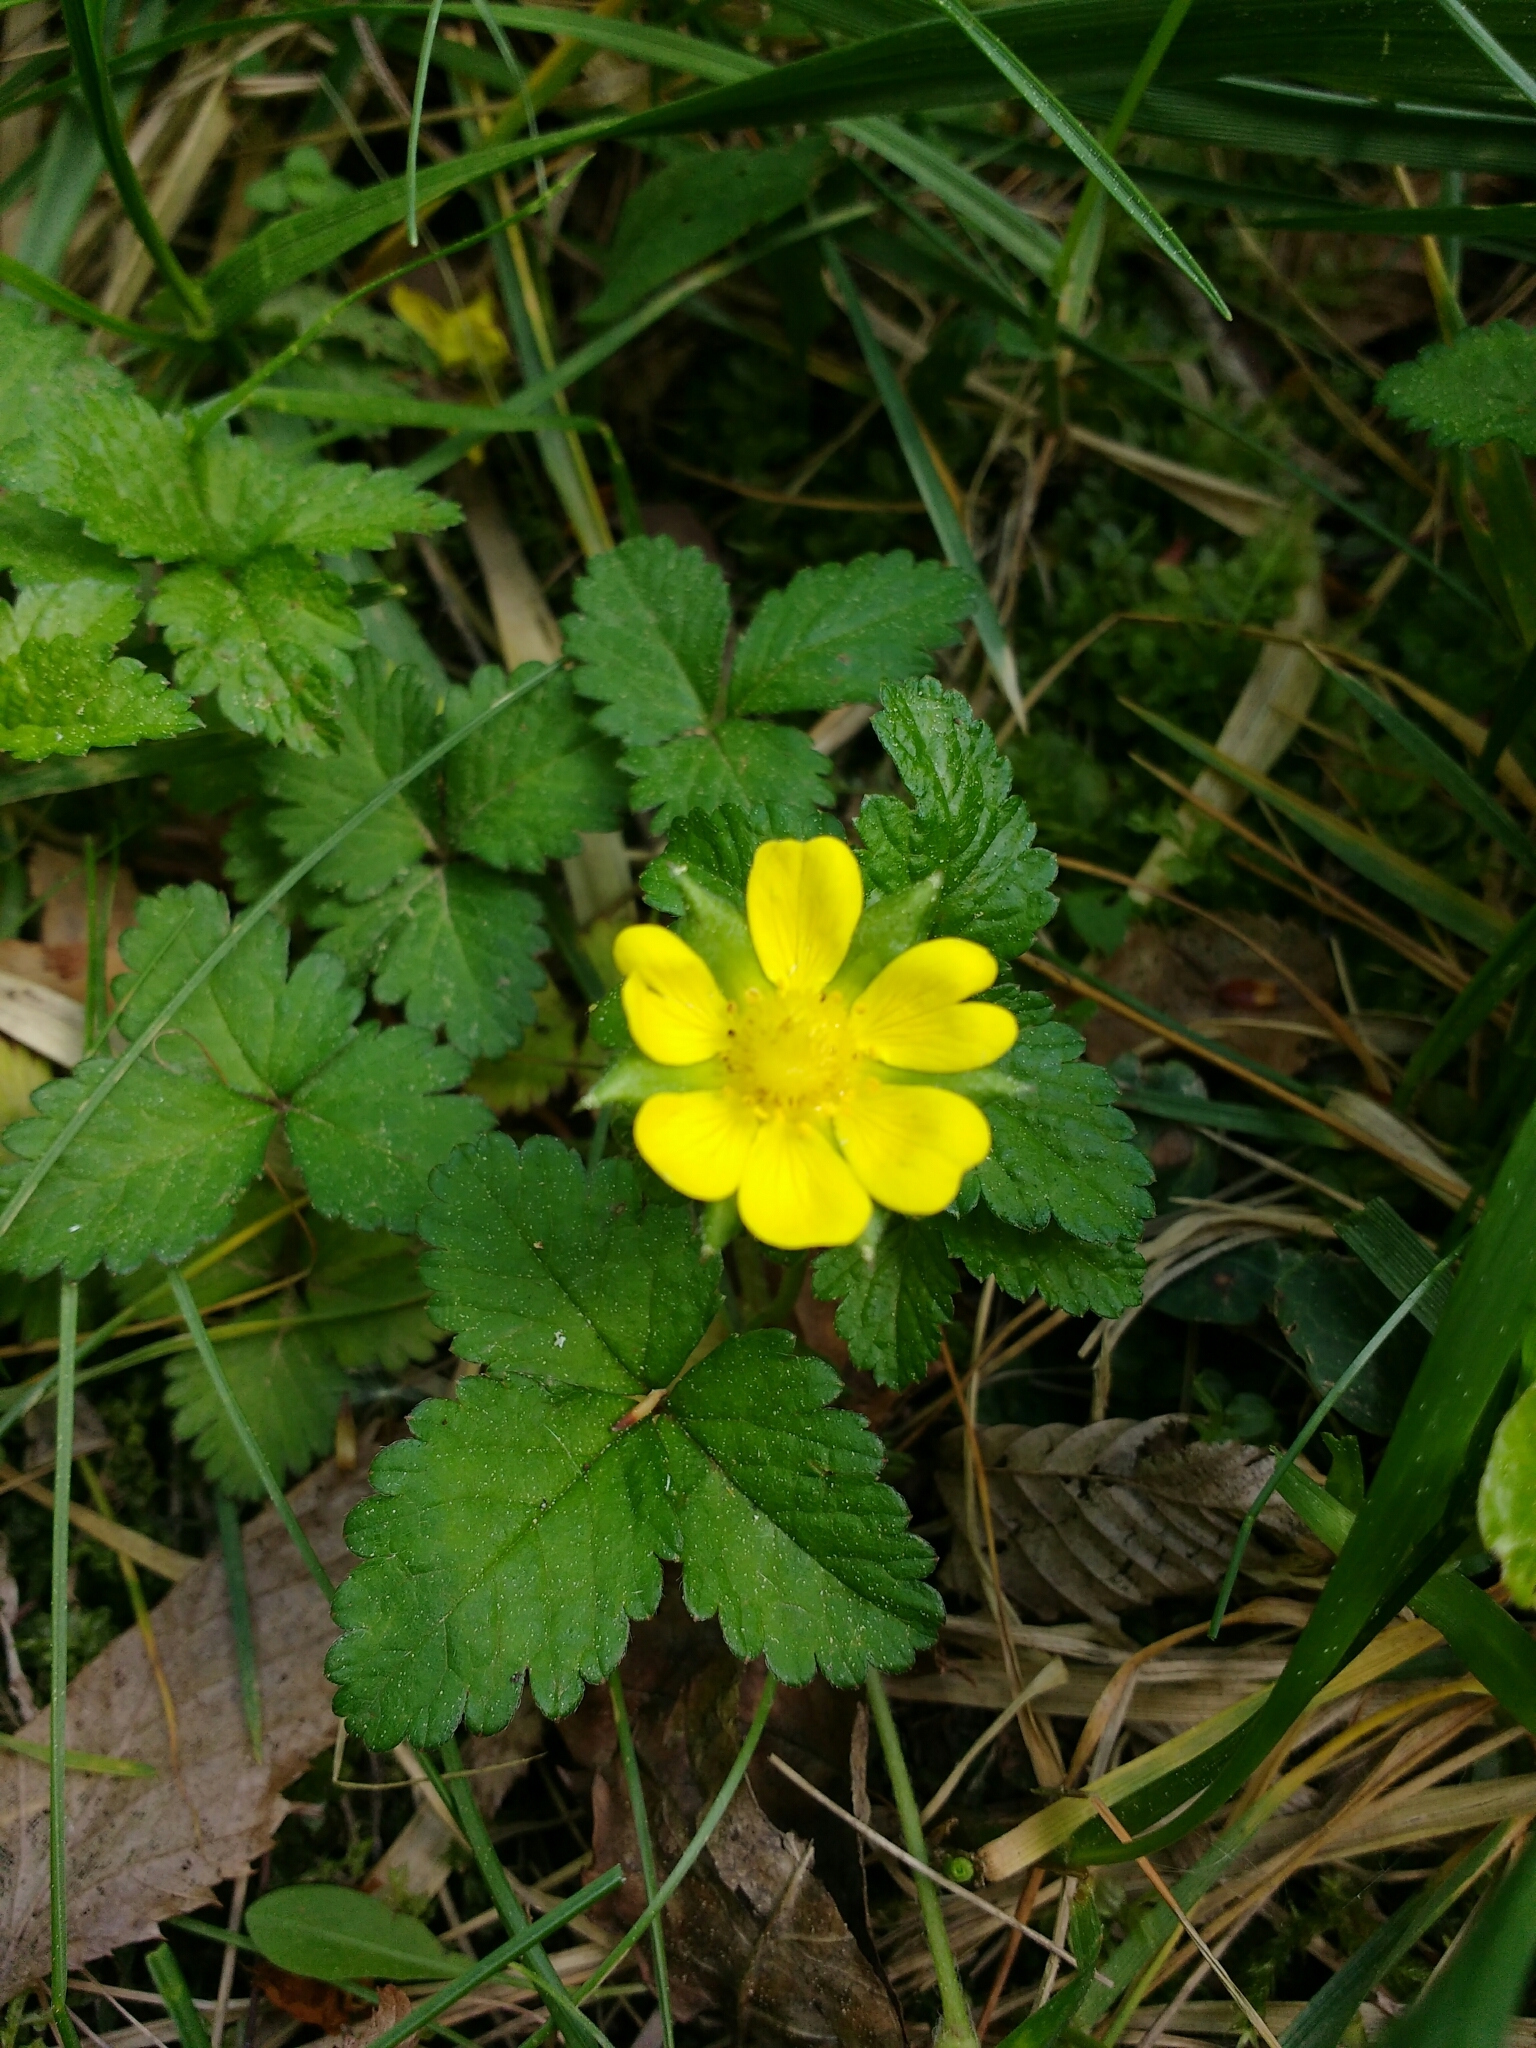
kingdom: Plantae
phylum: Tracheophyta
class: Magnoliopsida
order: Rosales
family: Rosaceae
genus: Potentilla
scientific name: Potentilla indica
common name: Yellow-flowered strawberry
